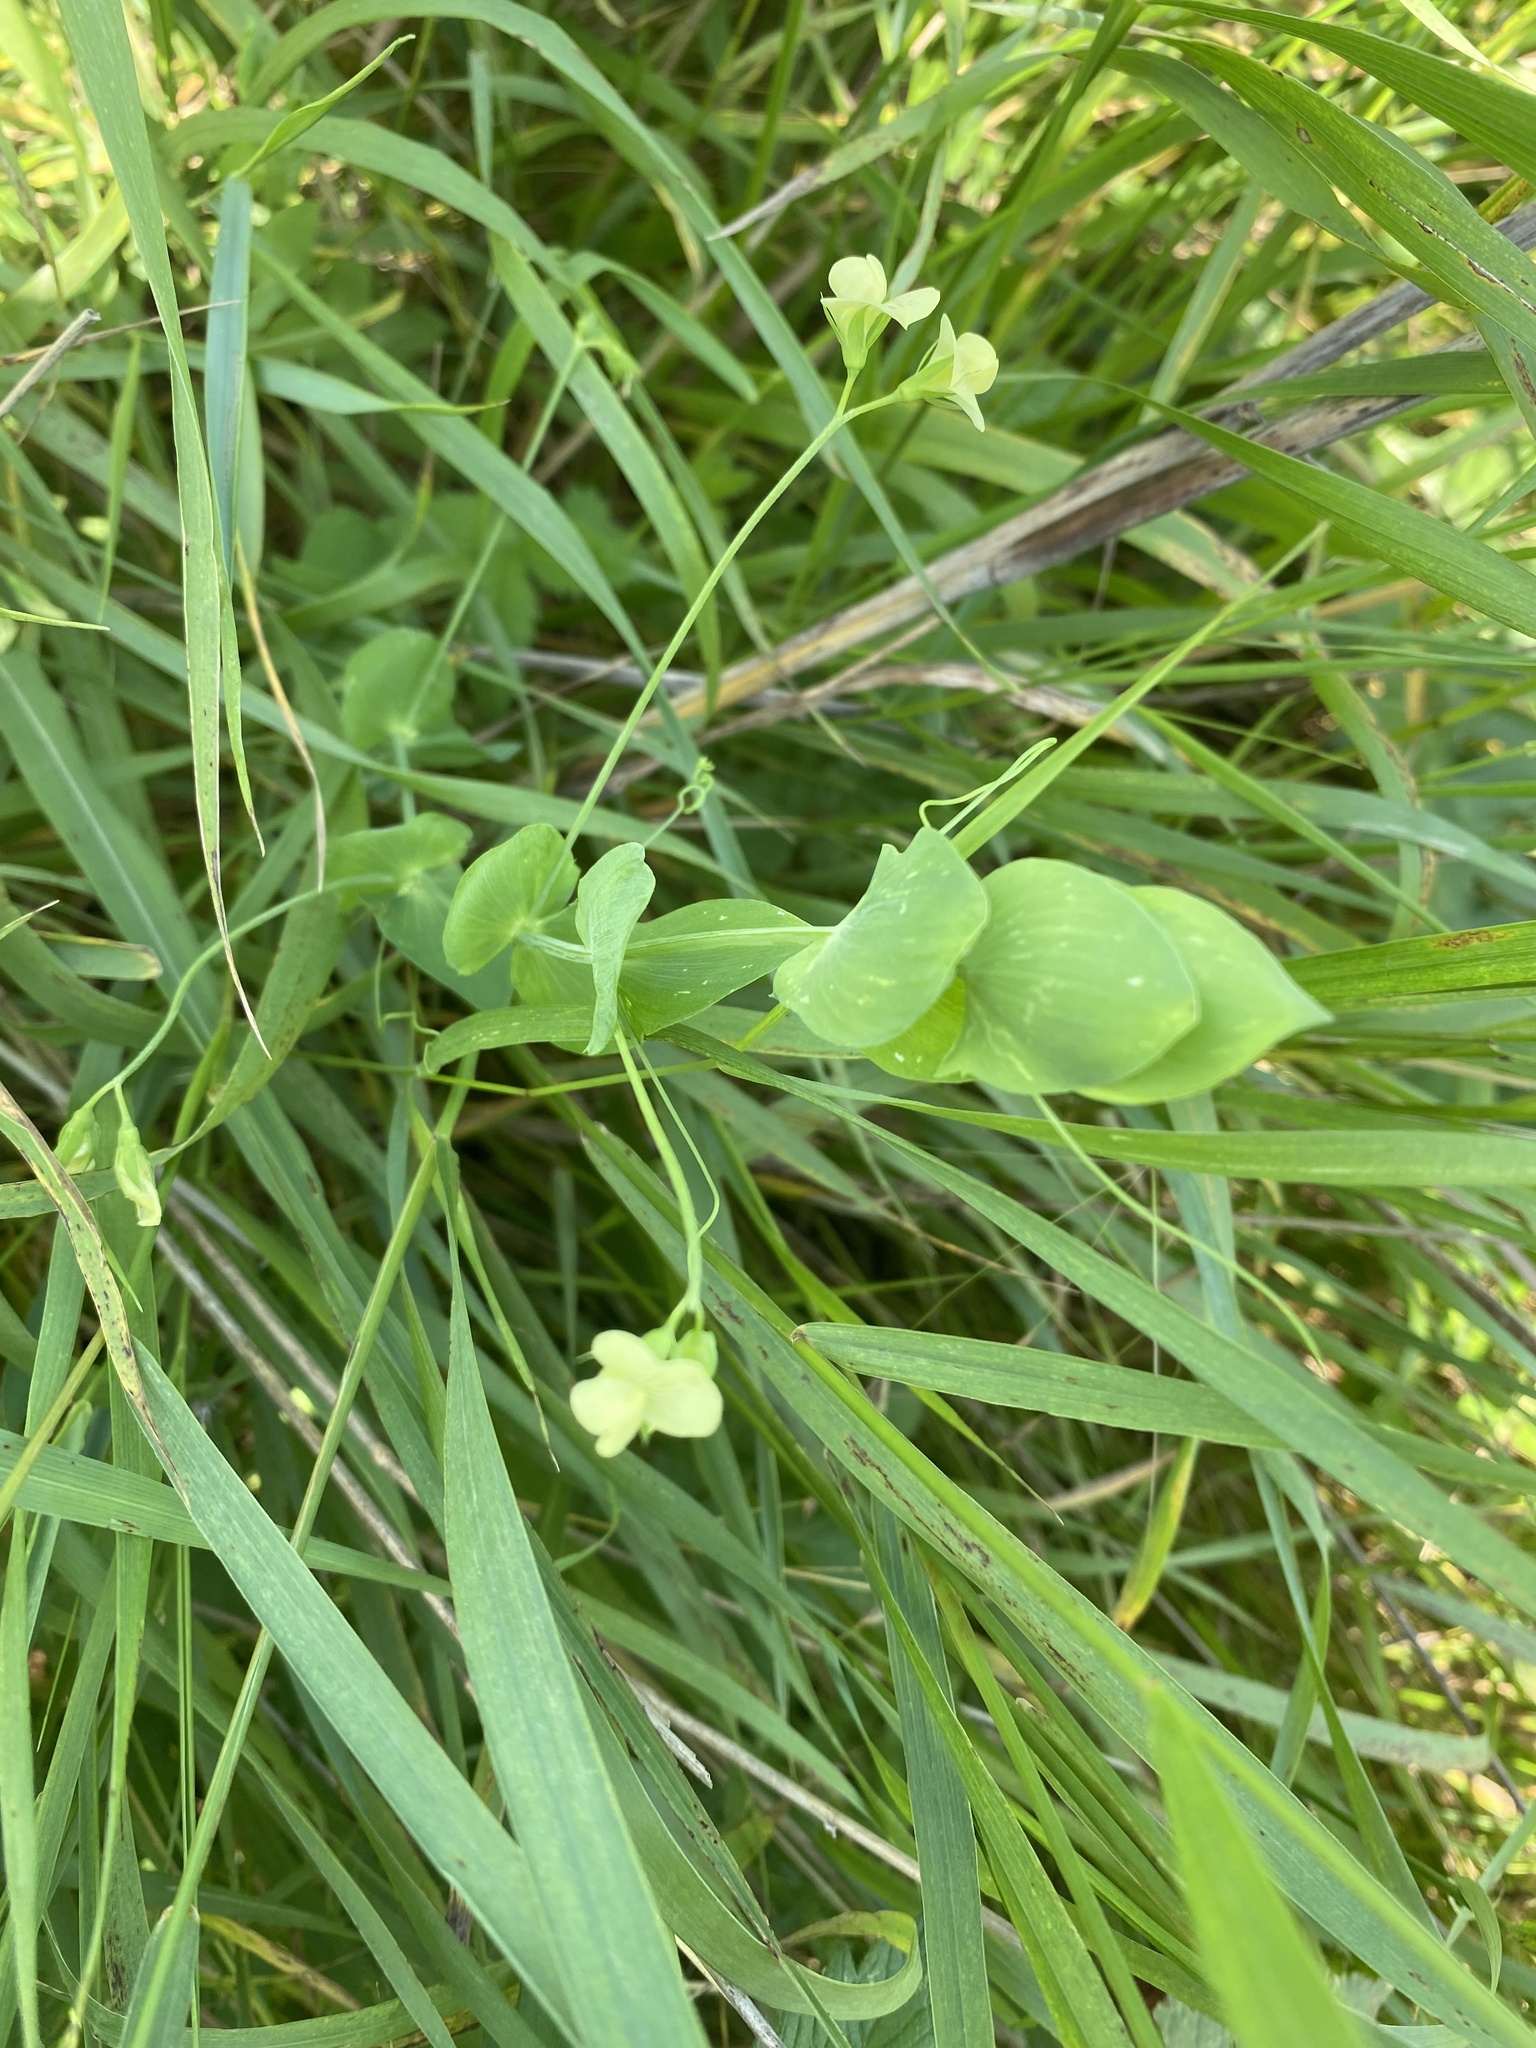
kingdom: Plantae
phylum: Tracheophyta
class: Magnoliopsida
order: Fabales
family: Fabaceae
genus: Lathyrus
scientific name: Lathyrus aphaca
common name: Yellow vetchling
